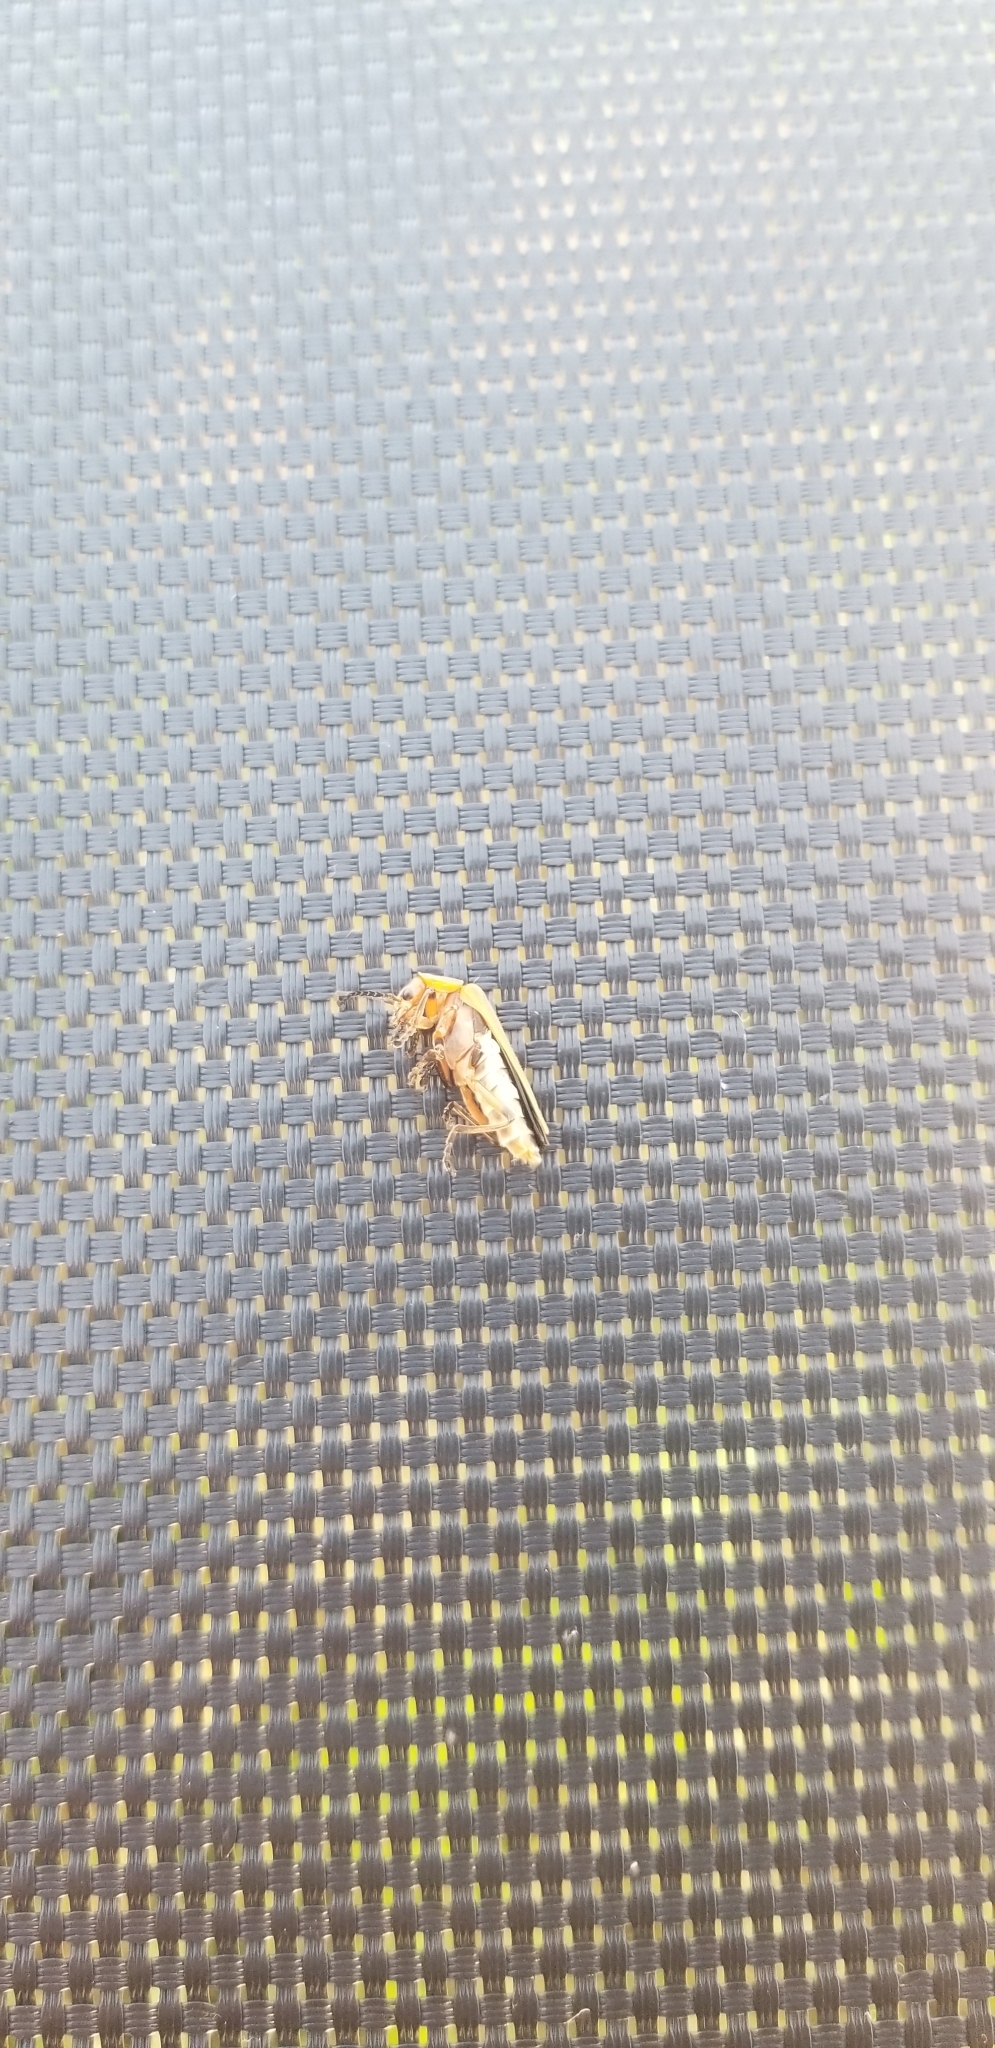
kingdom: Animalia
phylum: Arthropoda
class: Insecta
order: Coleoptera
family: Cantharidae
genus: Chauliognathus
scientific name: Chauliognathus marginatus
